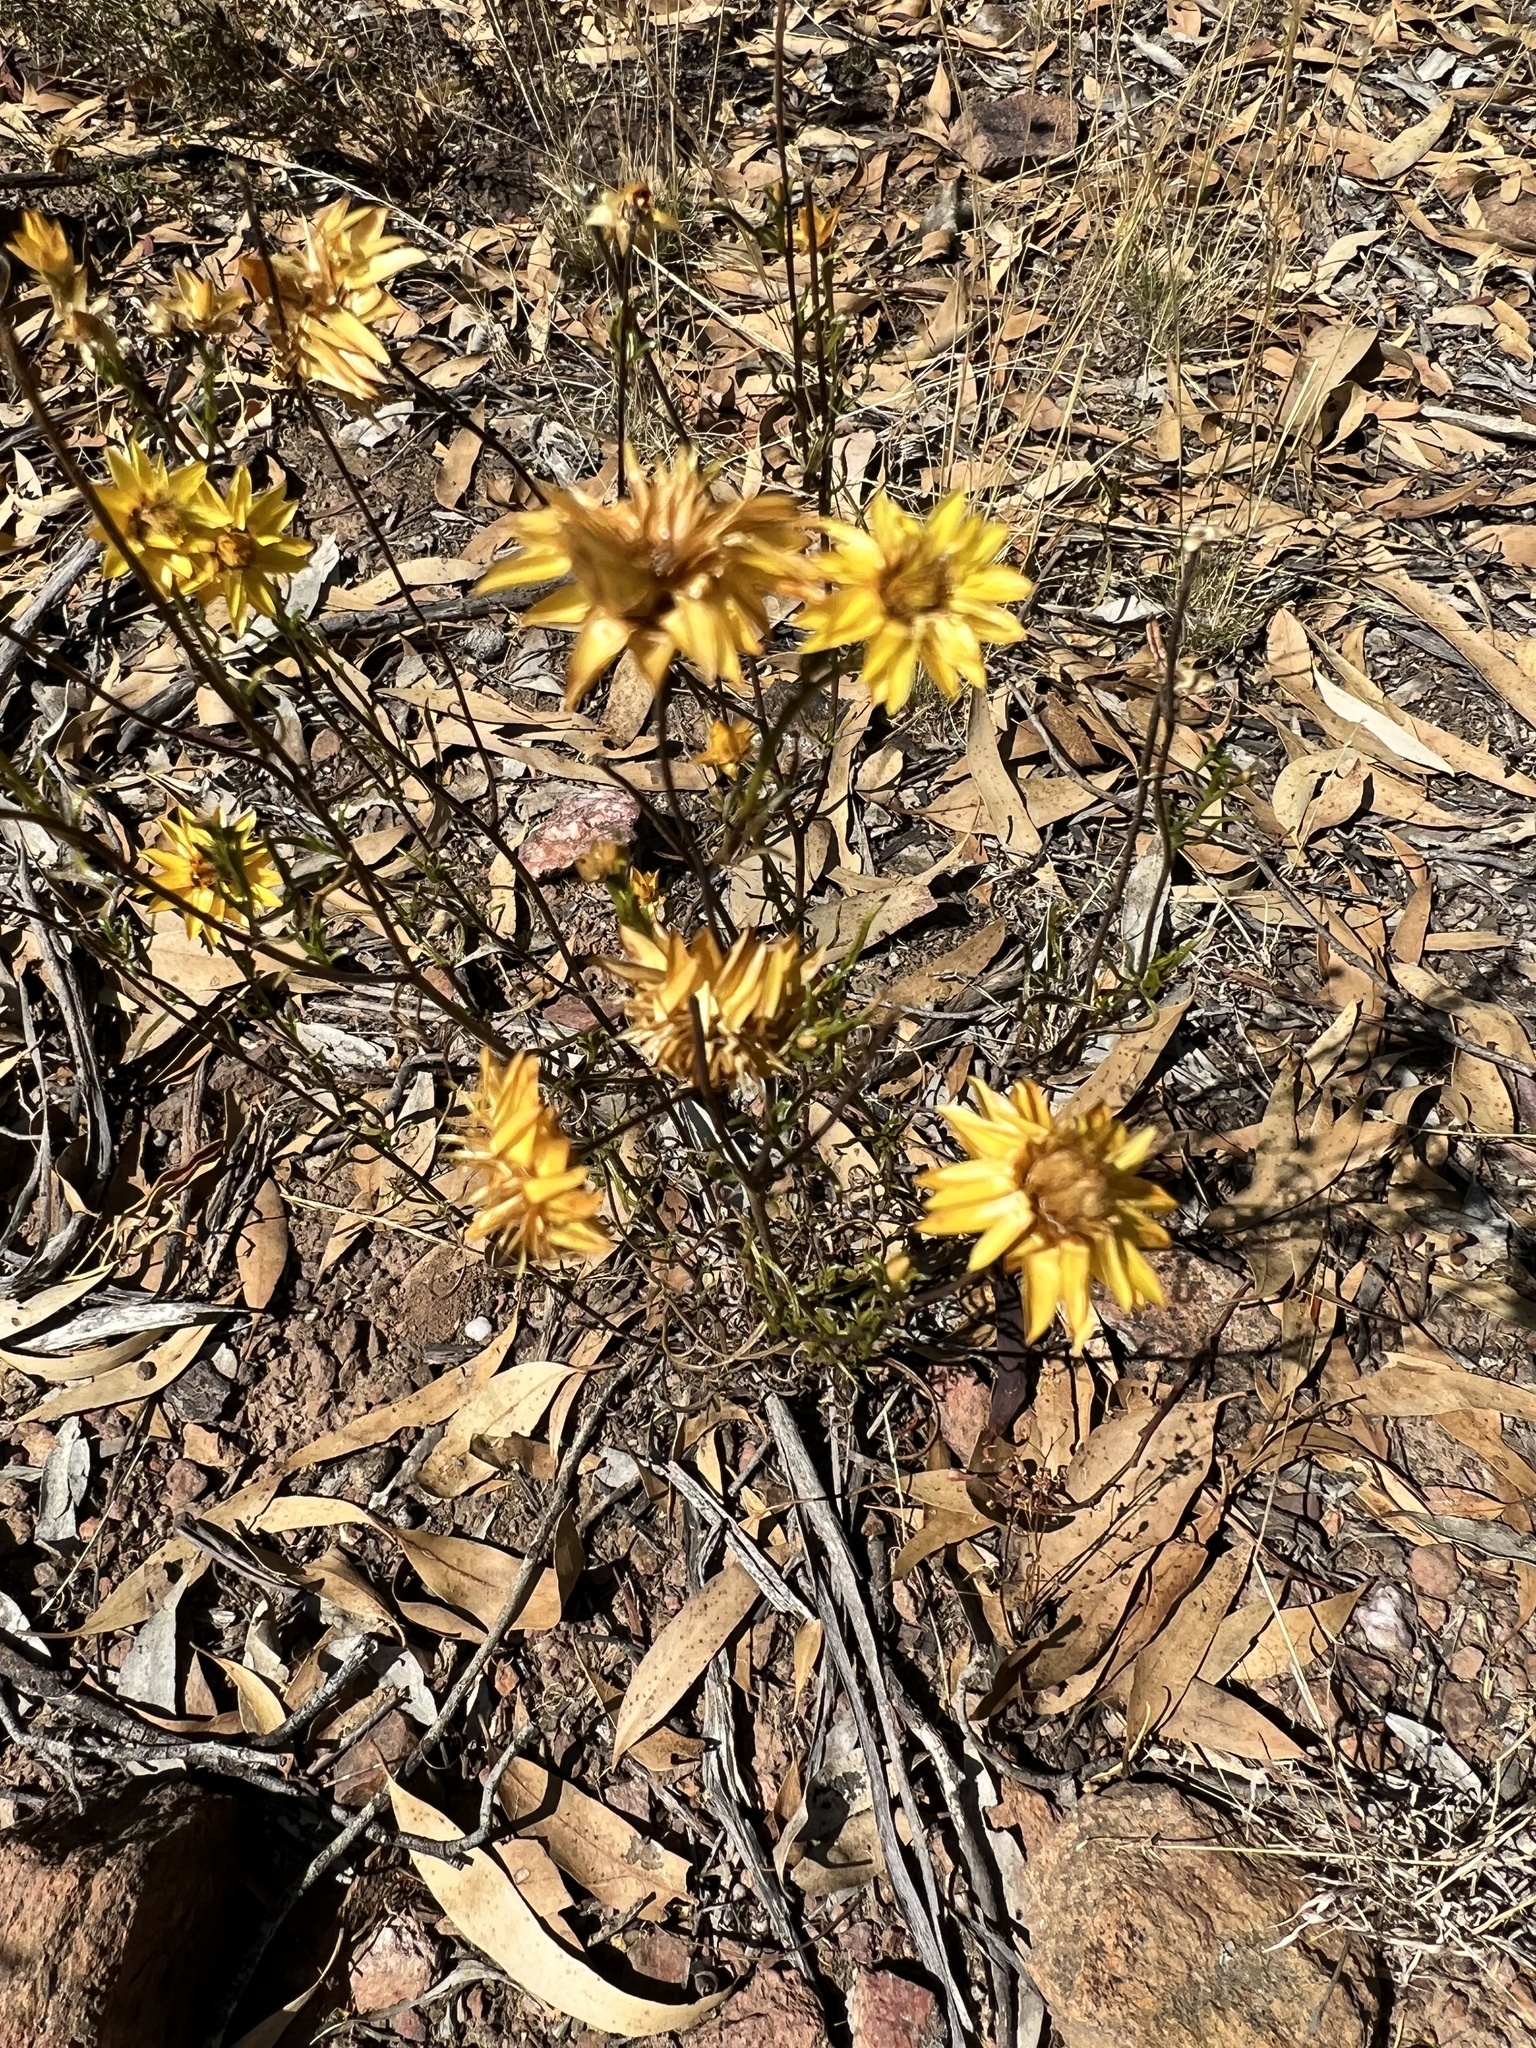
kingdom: Plantae
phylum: Tracheophyta
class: Magnoliopsida
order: Asterales
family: Asteraceae
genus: Xerochrysum
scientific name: Xerochrysum viscosum
